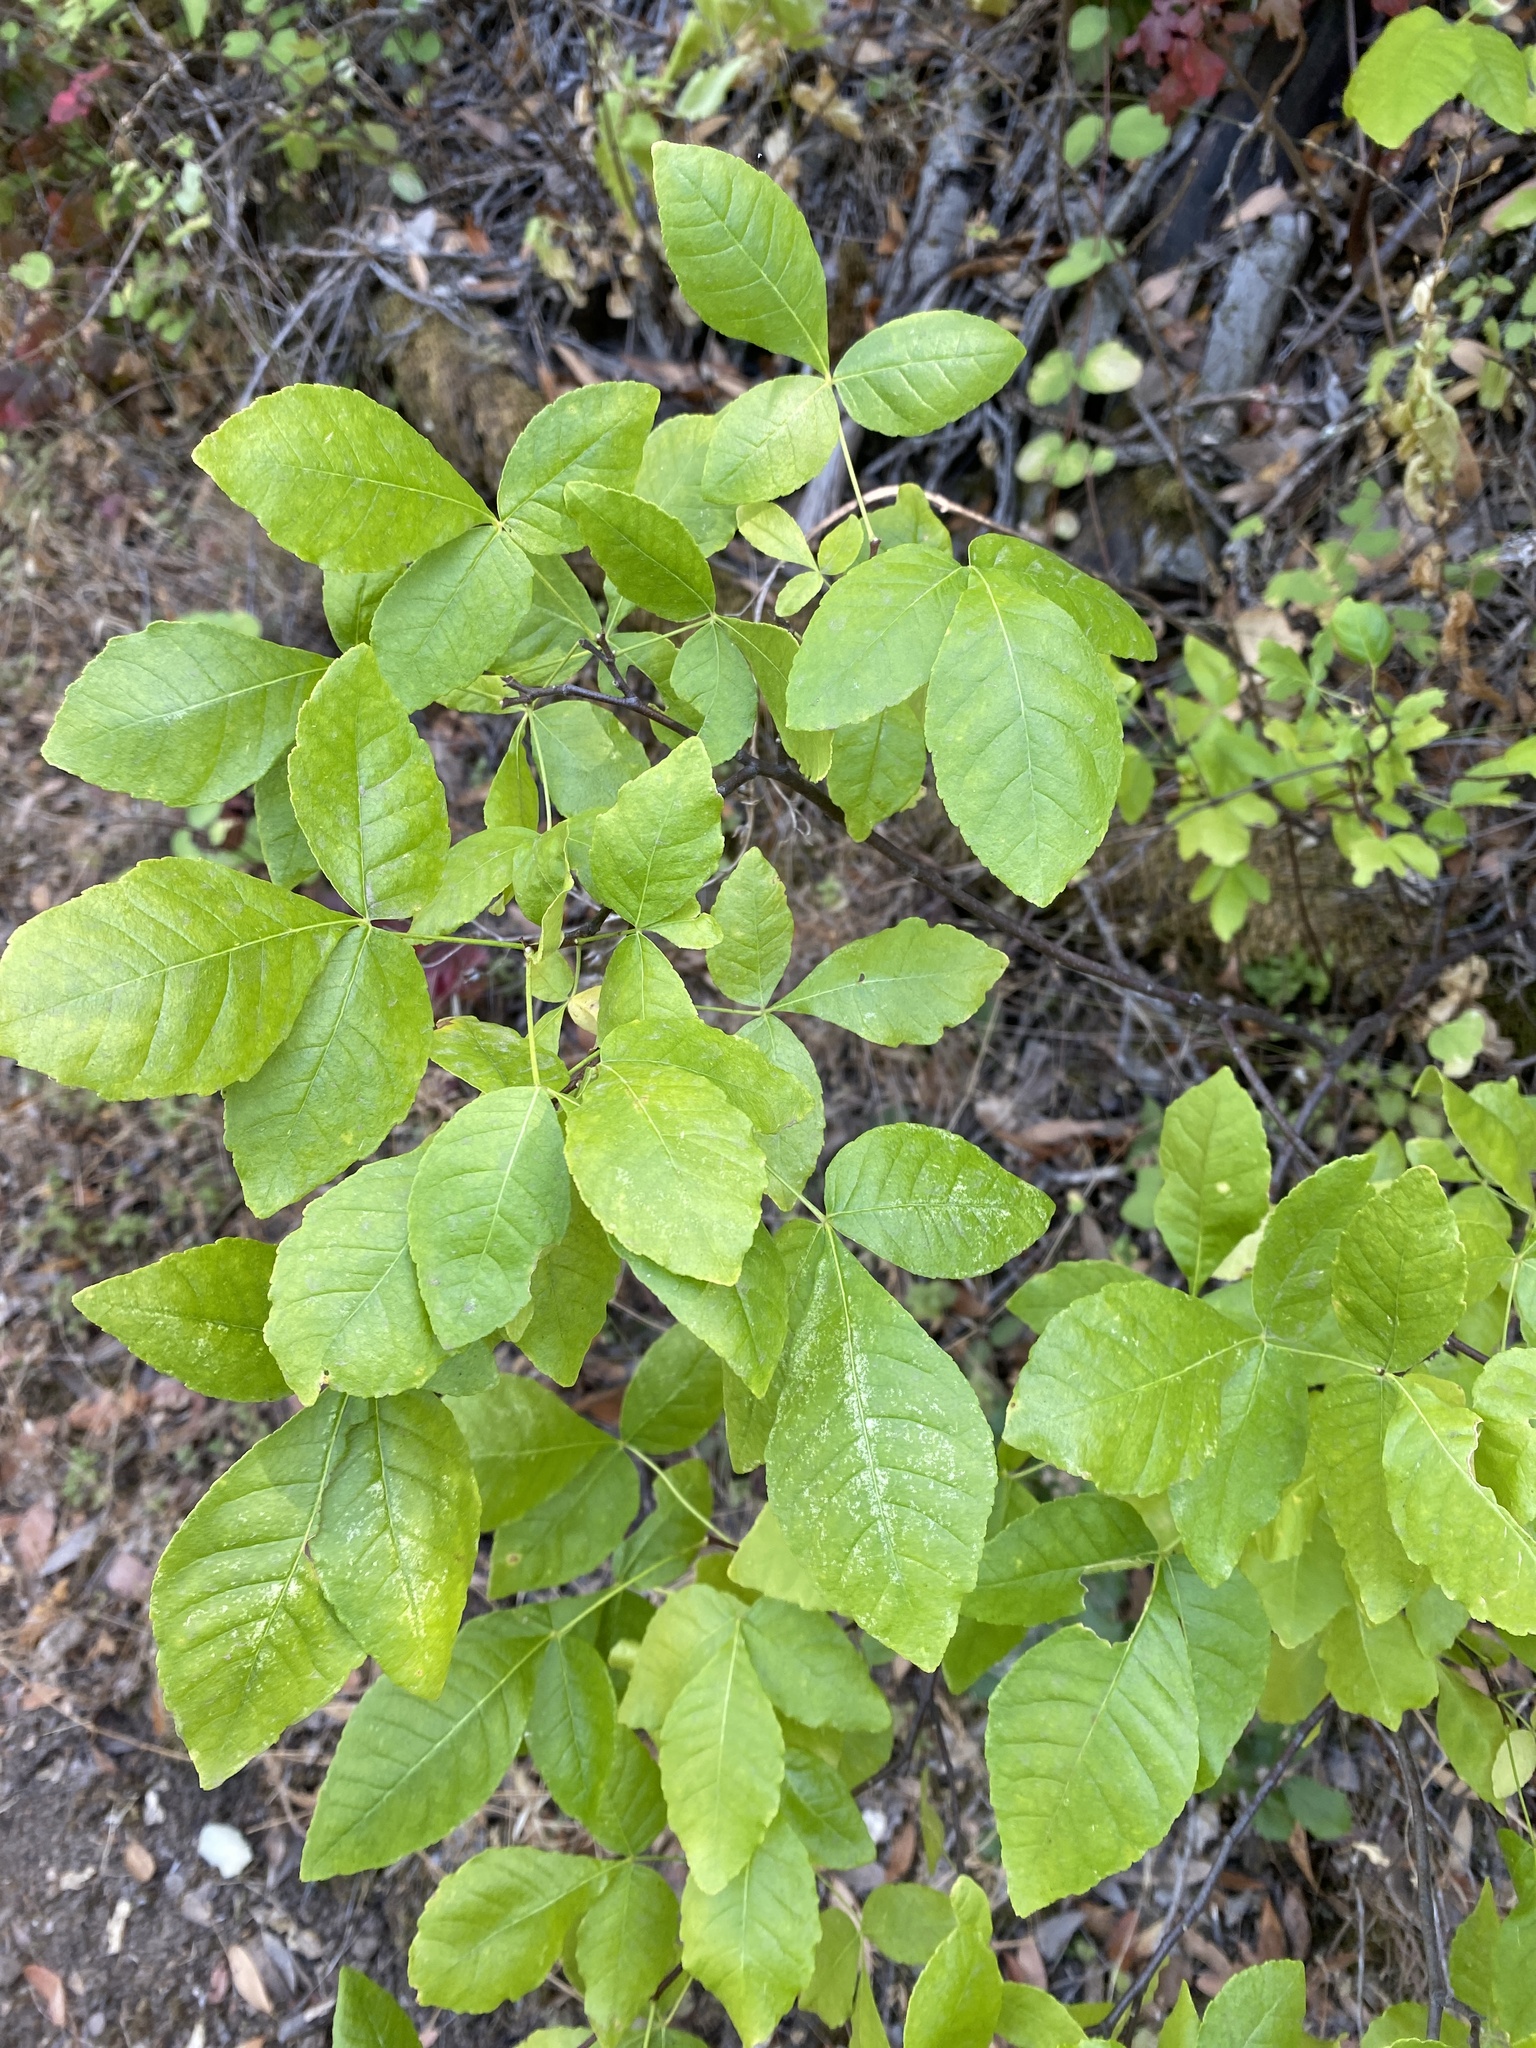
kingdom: Plantae
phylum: Tracheophyta
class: Magnoliopsida
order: Sapindales
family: Rutaceae
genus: Ptelea
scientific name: Ptelea crenulata
